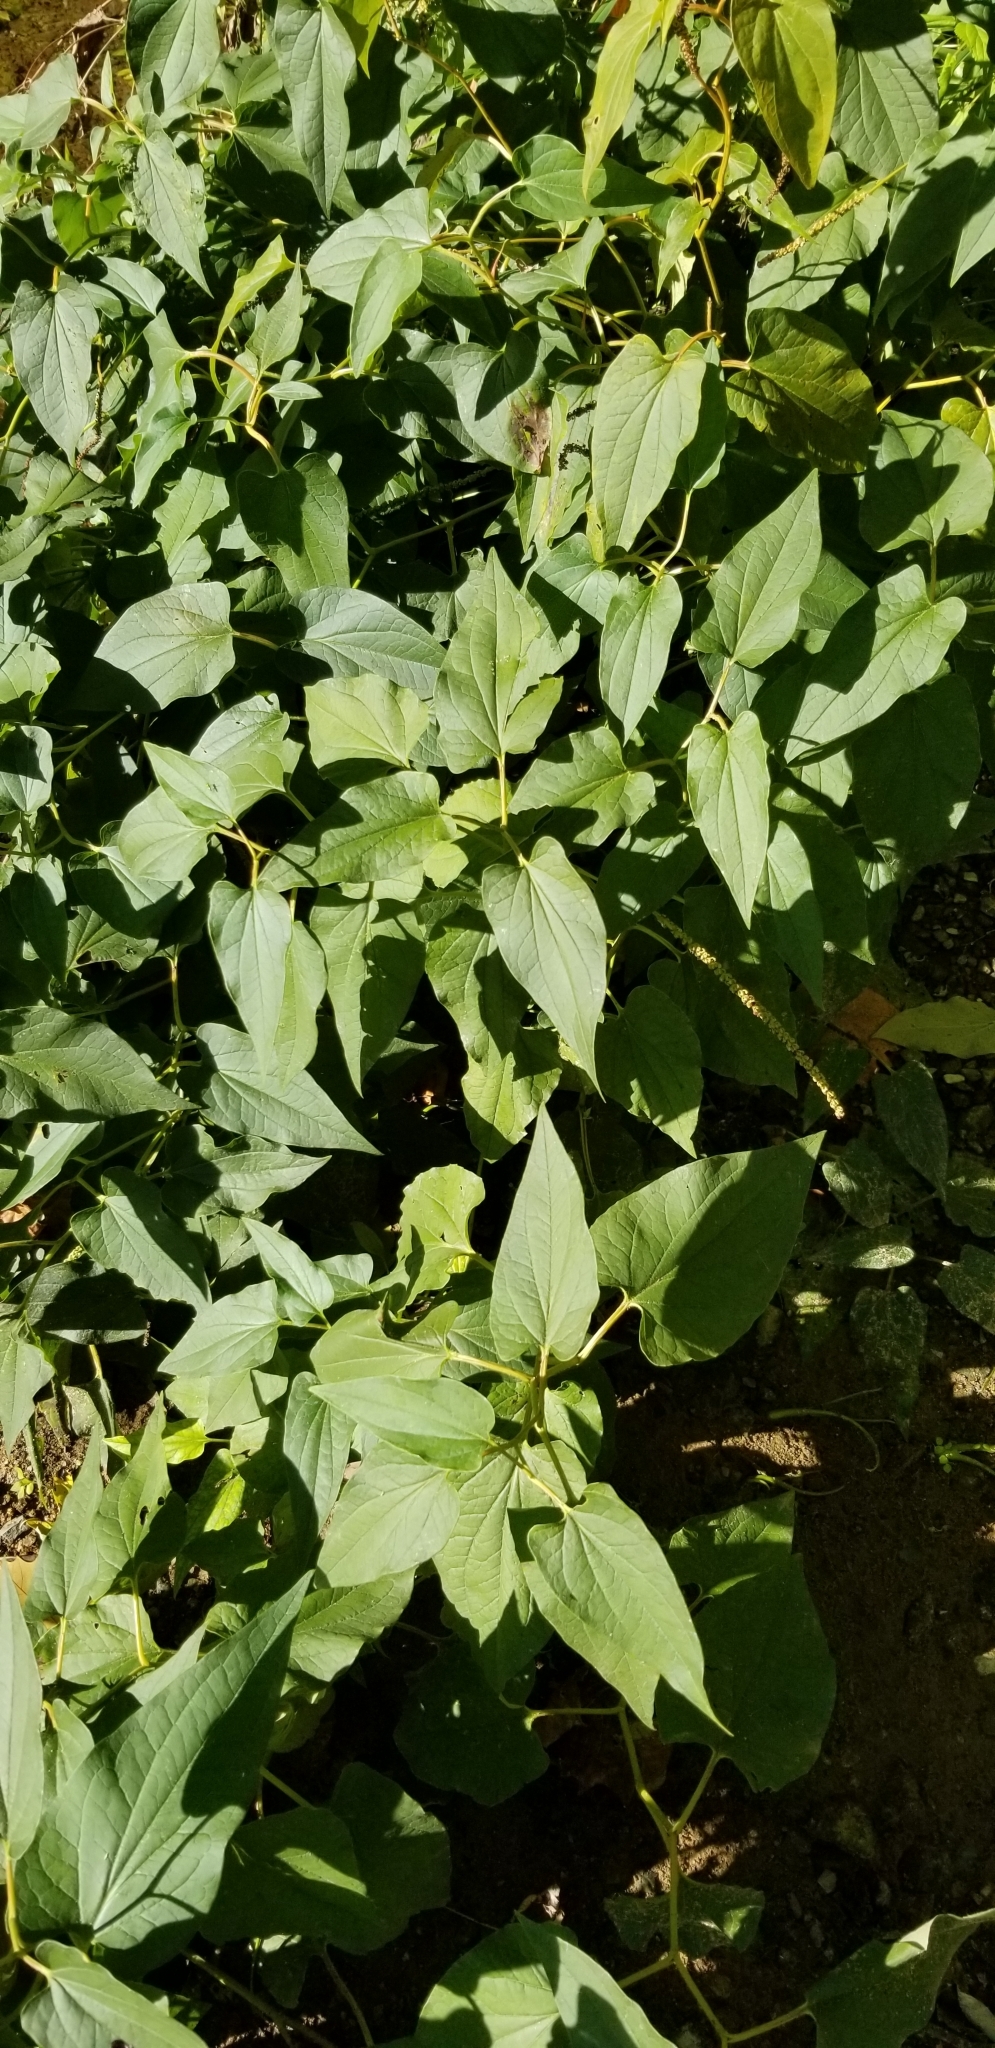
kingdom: Plantae
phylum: Tracheophyta
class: Magnoliopsida
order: Piperales
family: Saururaceae
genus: Saururus
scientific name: Saururus cernuus
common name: Lizard's-tail
